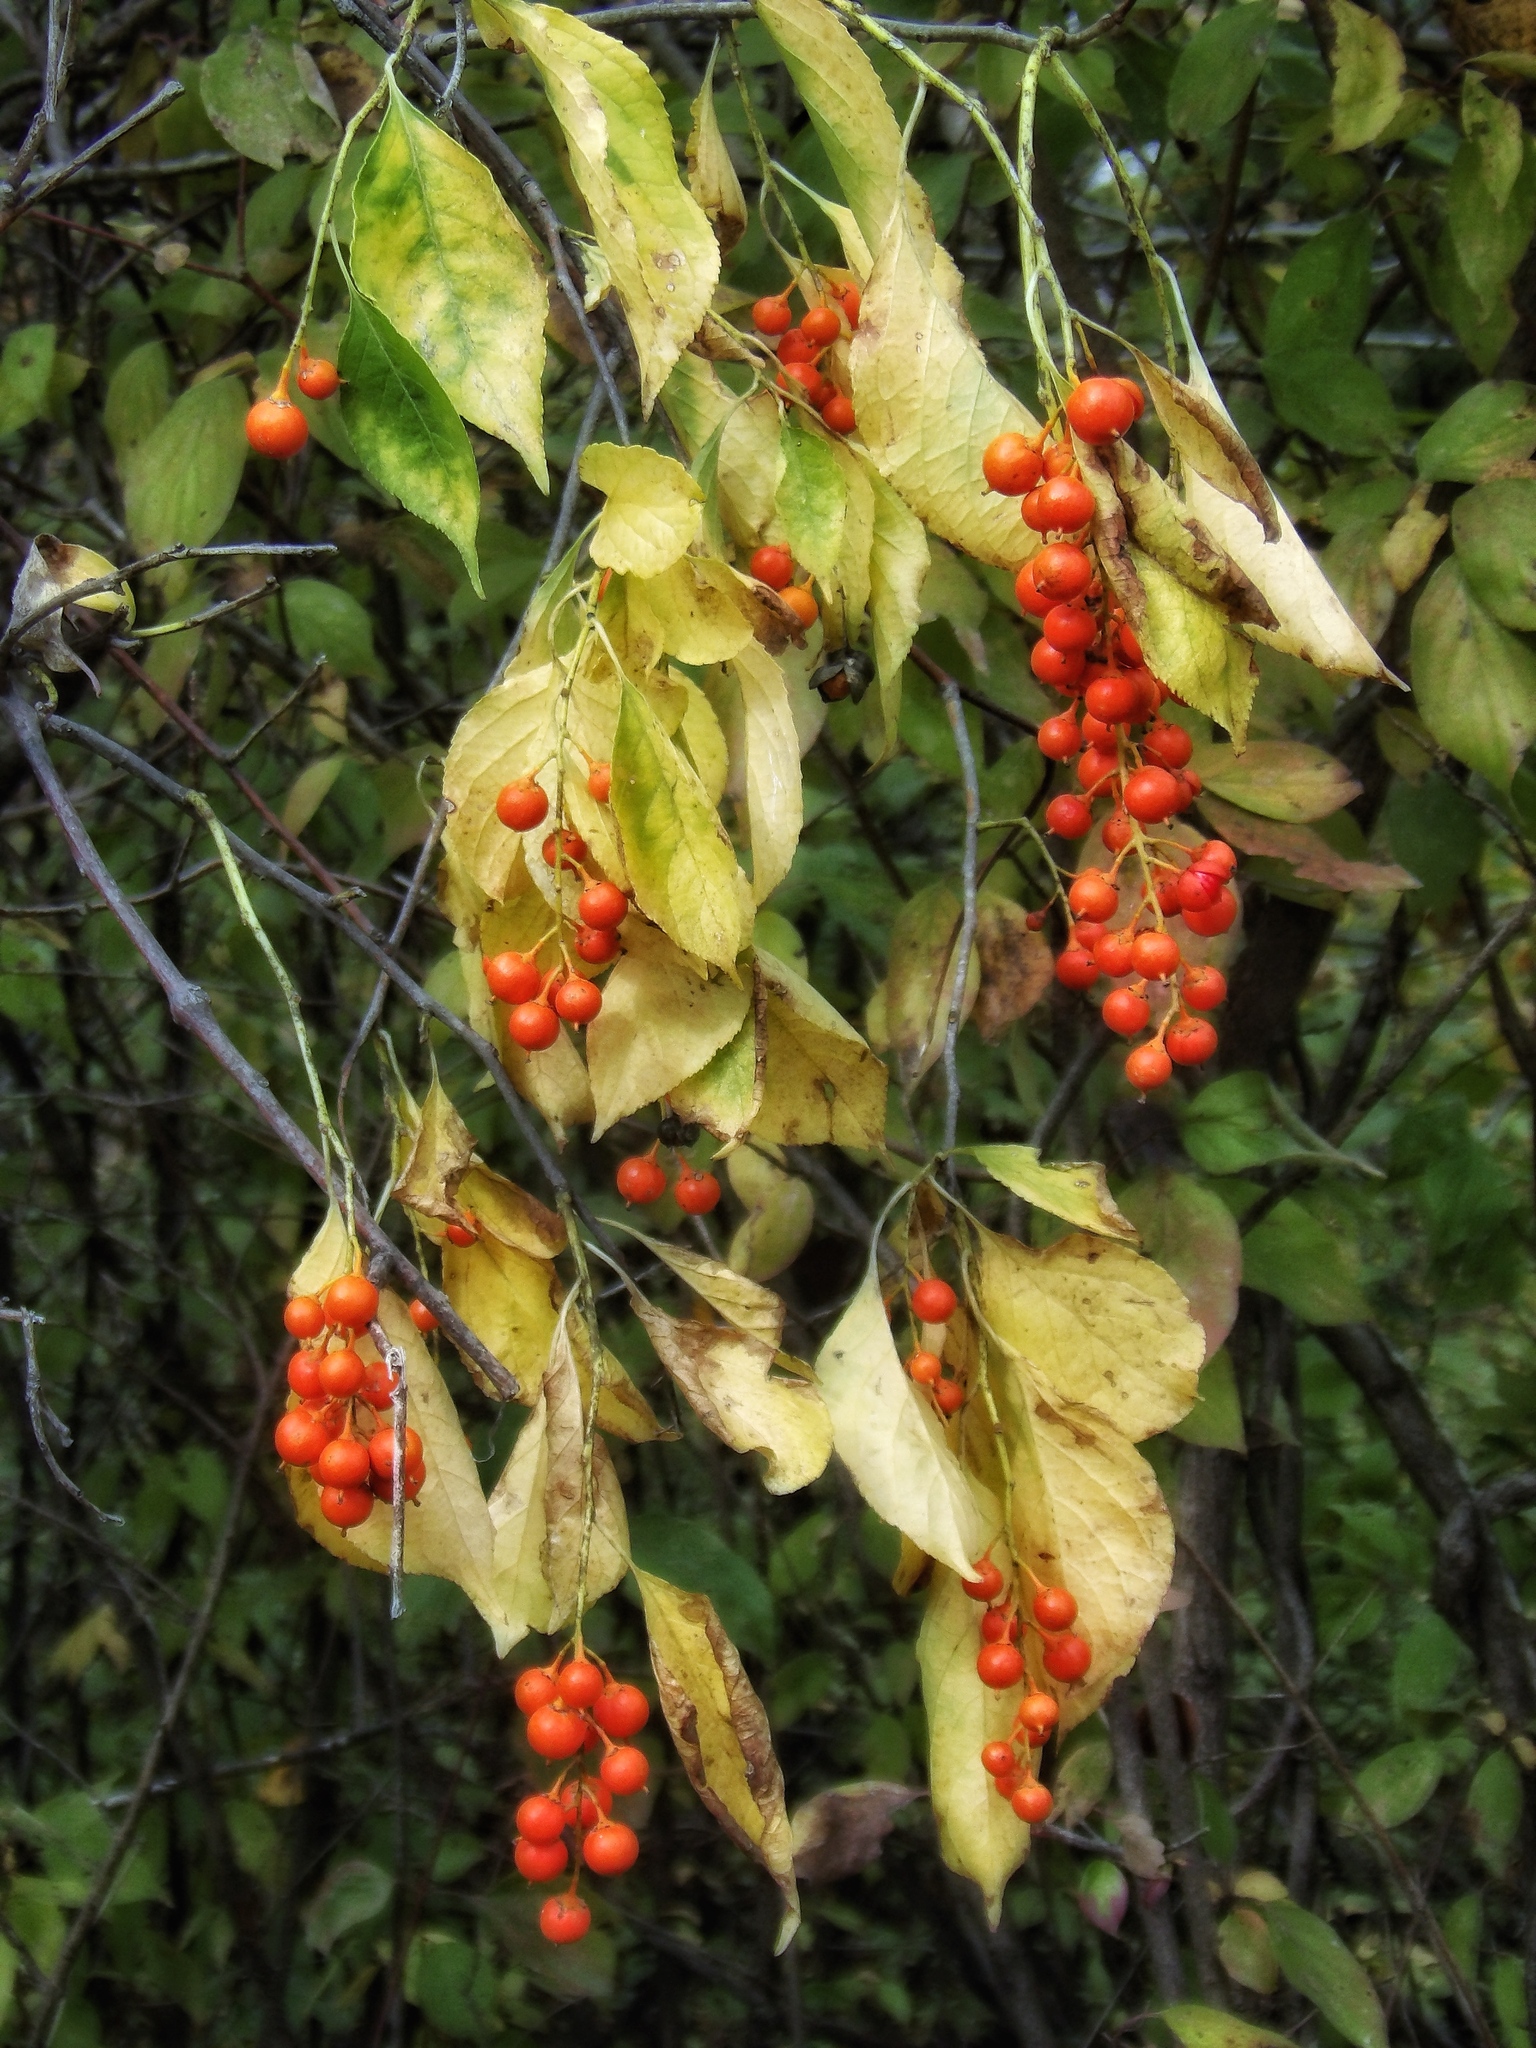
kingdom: Plantae
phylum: Tracheophyta
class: Magnoliopsida
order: Celastrales
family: Celastraceae
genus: Celastrus
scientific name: Celastrus scandens
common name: American bittersweet
